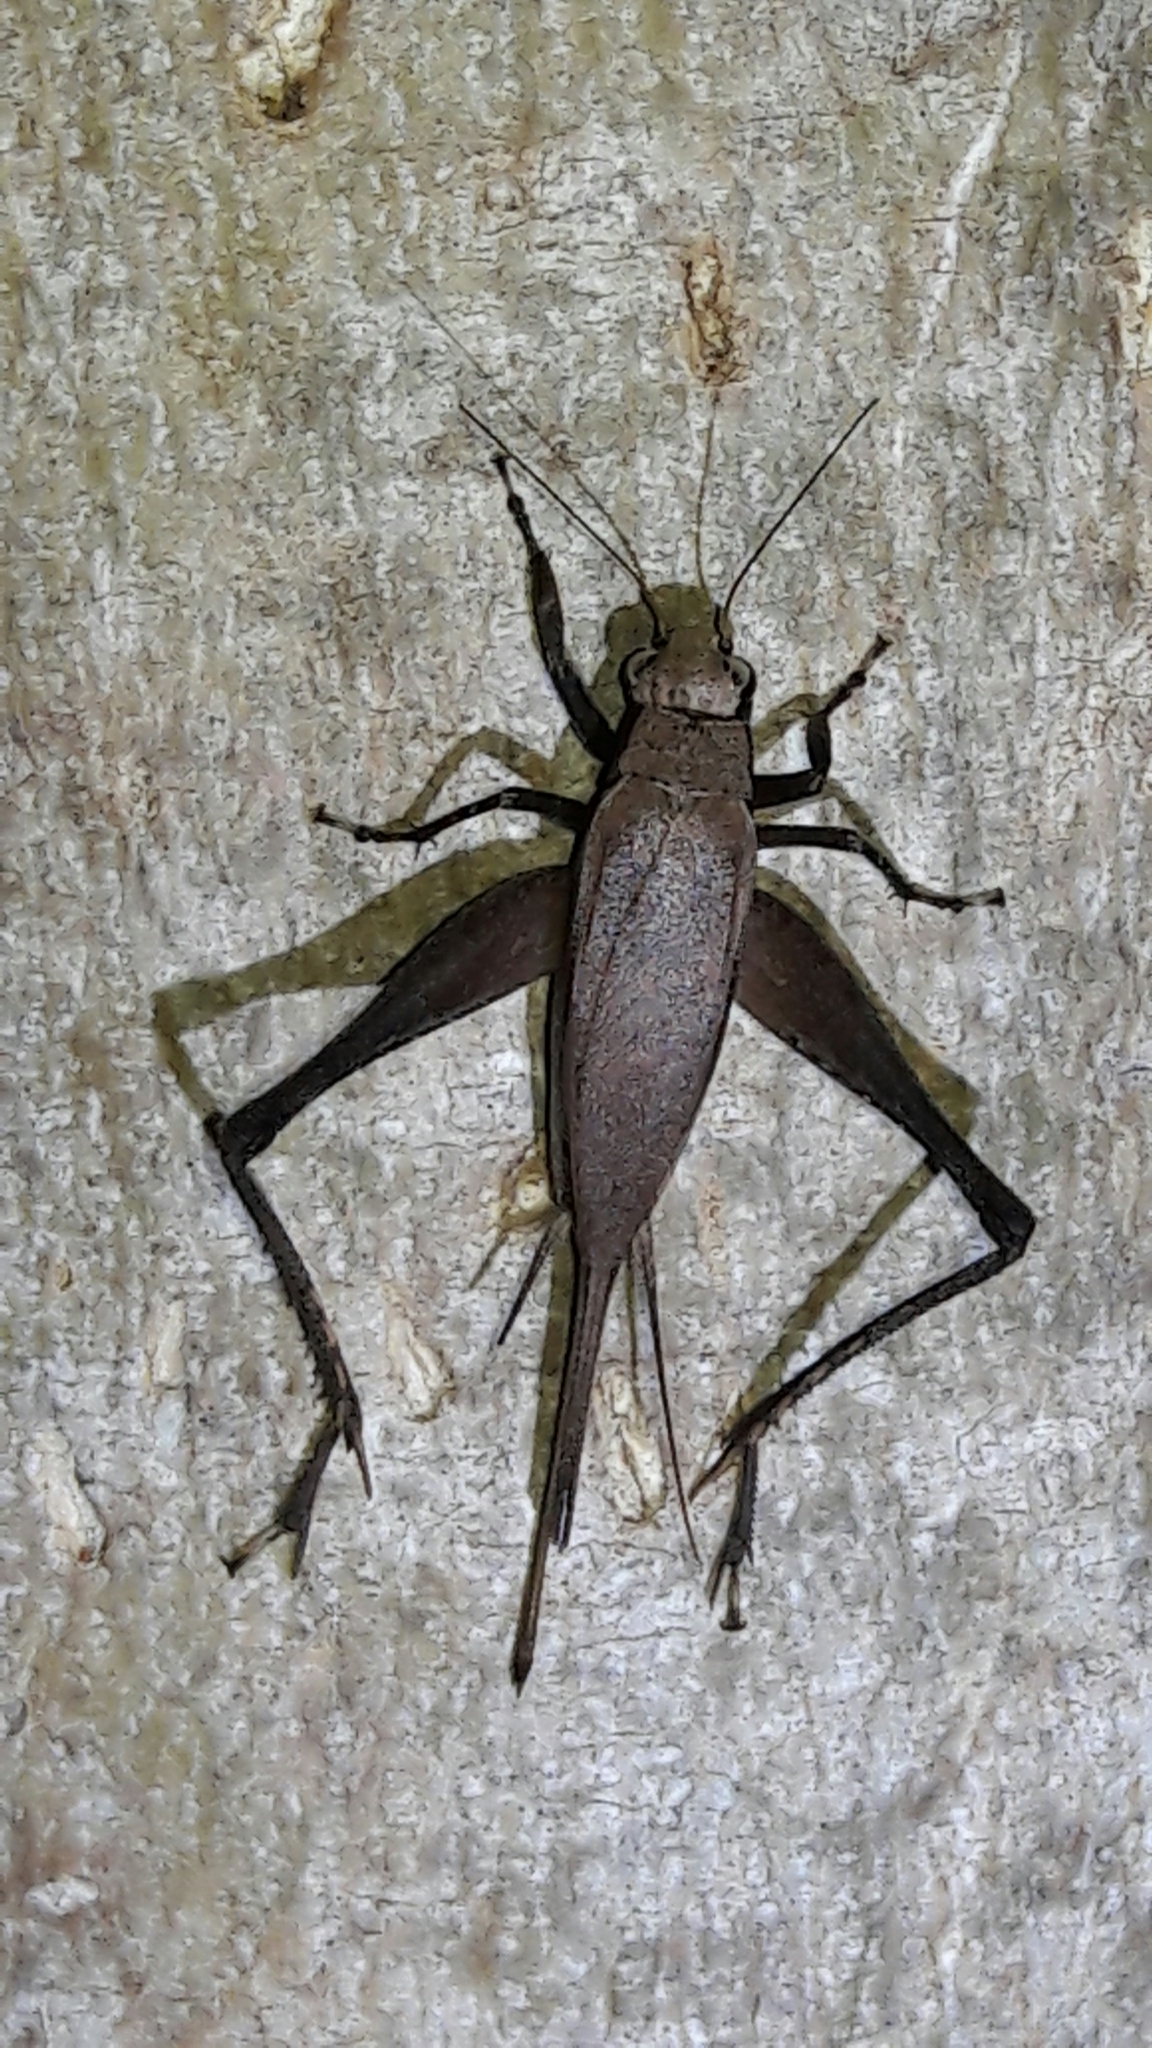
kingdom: Animalia
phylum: Arthropoda
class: Insecta
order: Orthoptera
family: Gryllidae
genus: Eneoptera
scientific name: Eneoptera nigripedis
